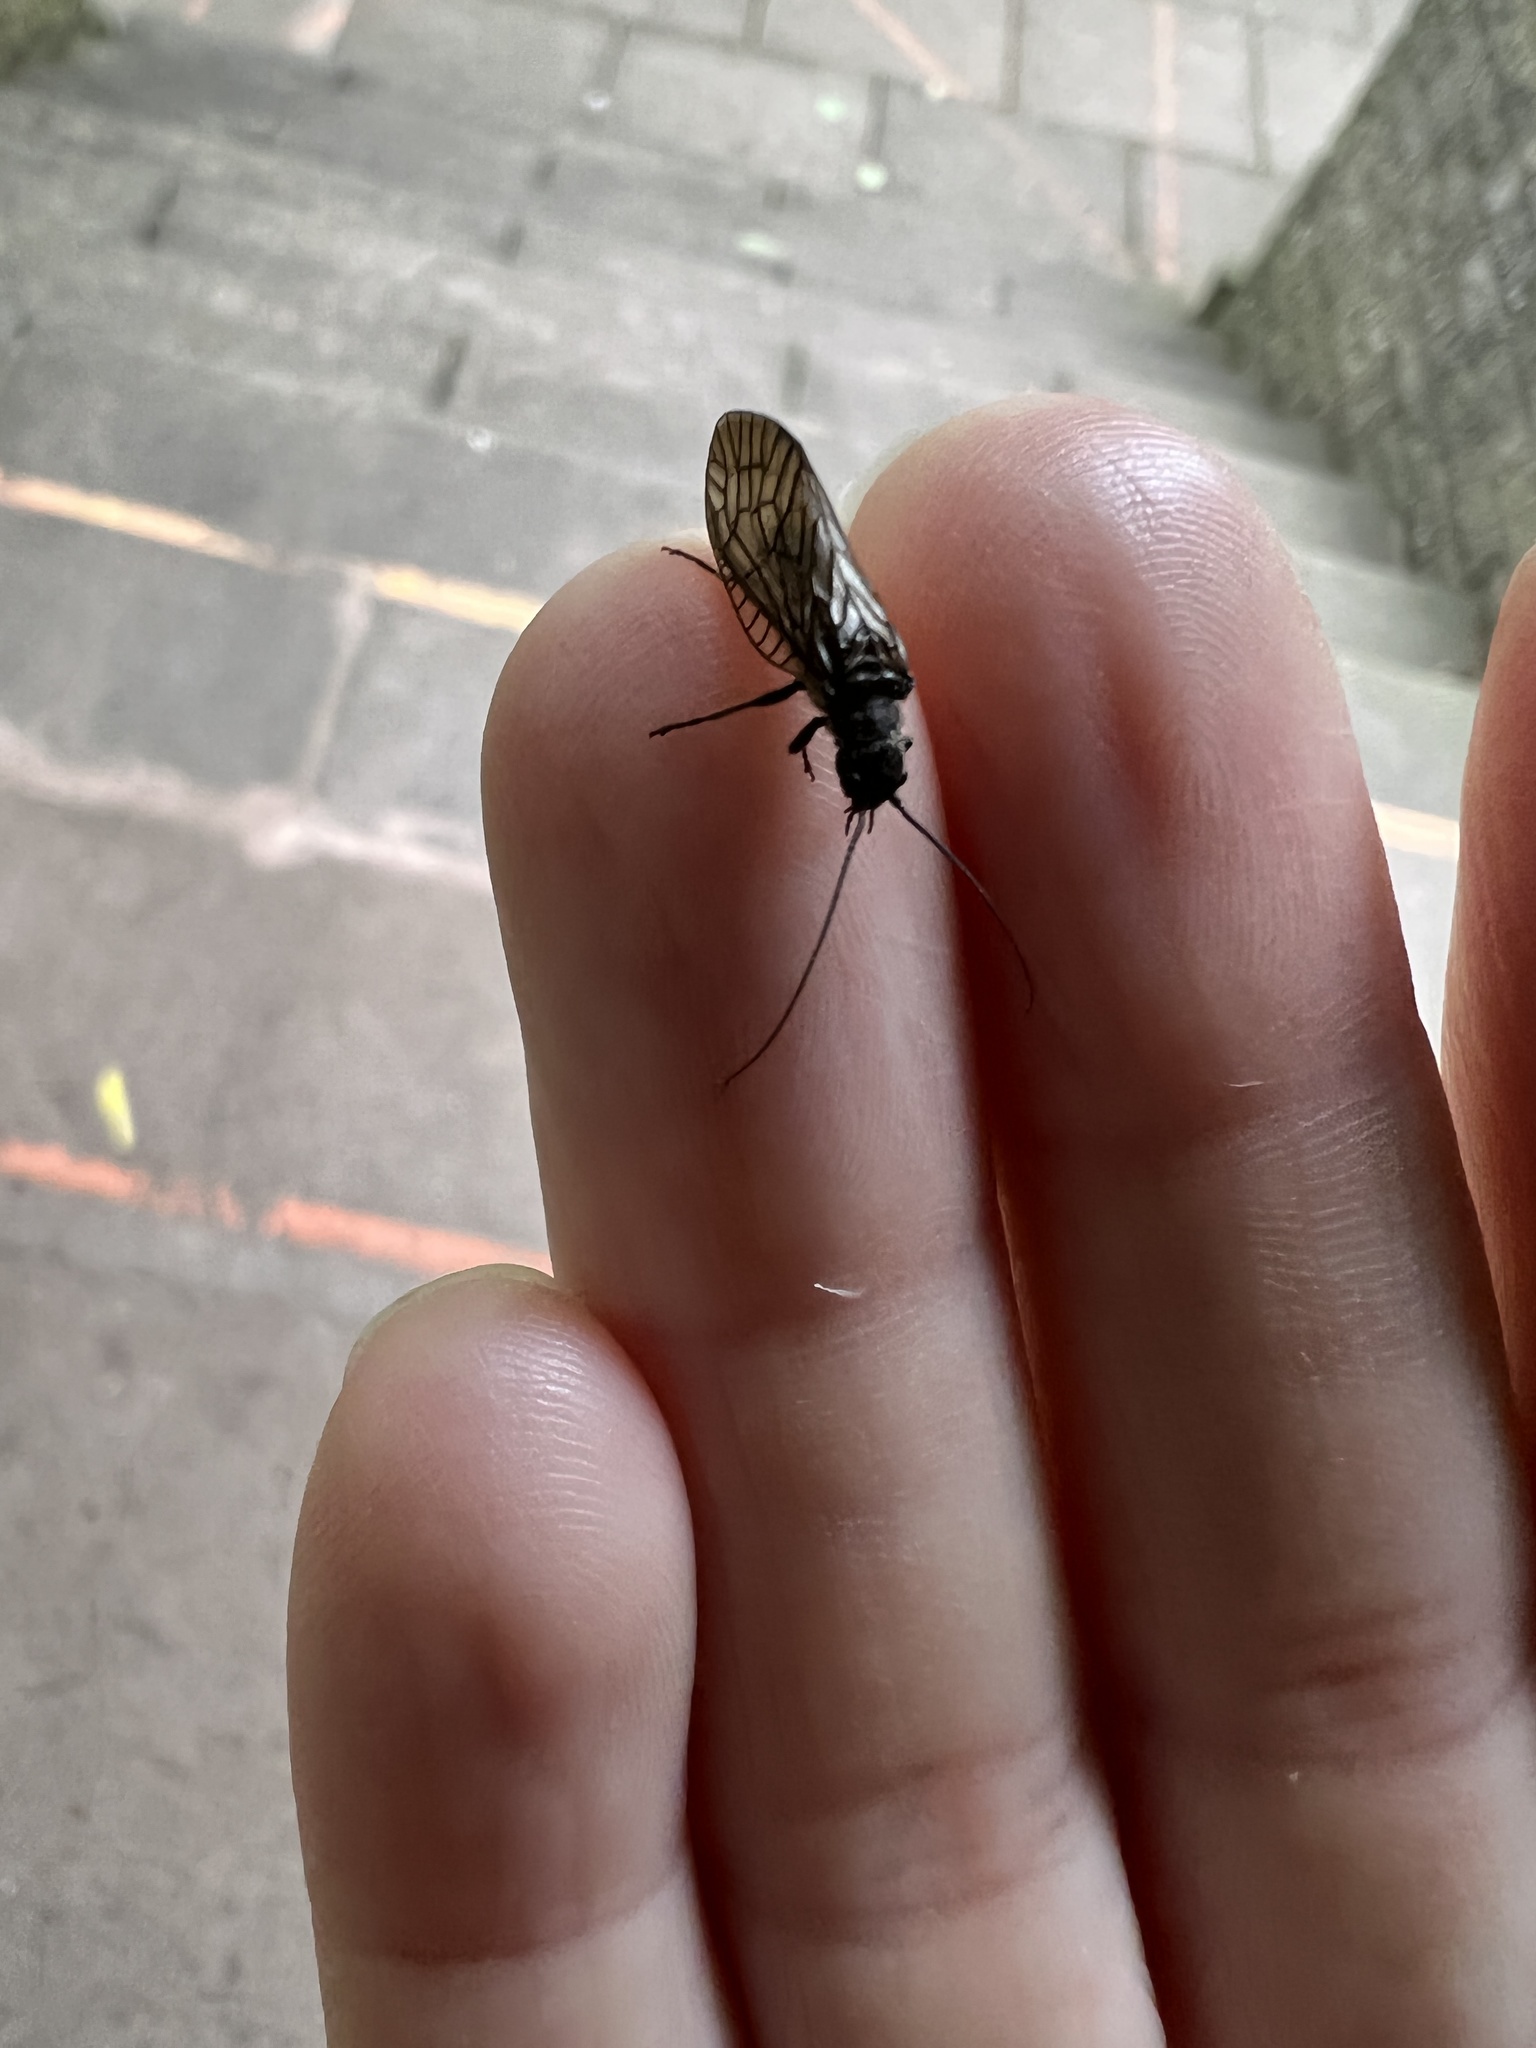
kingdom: Animalia
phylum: Arthropoda
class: Insecta
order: Megaloptera
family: Sialidae
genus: Sialis
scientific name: Sialis
